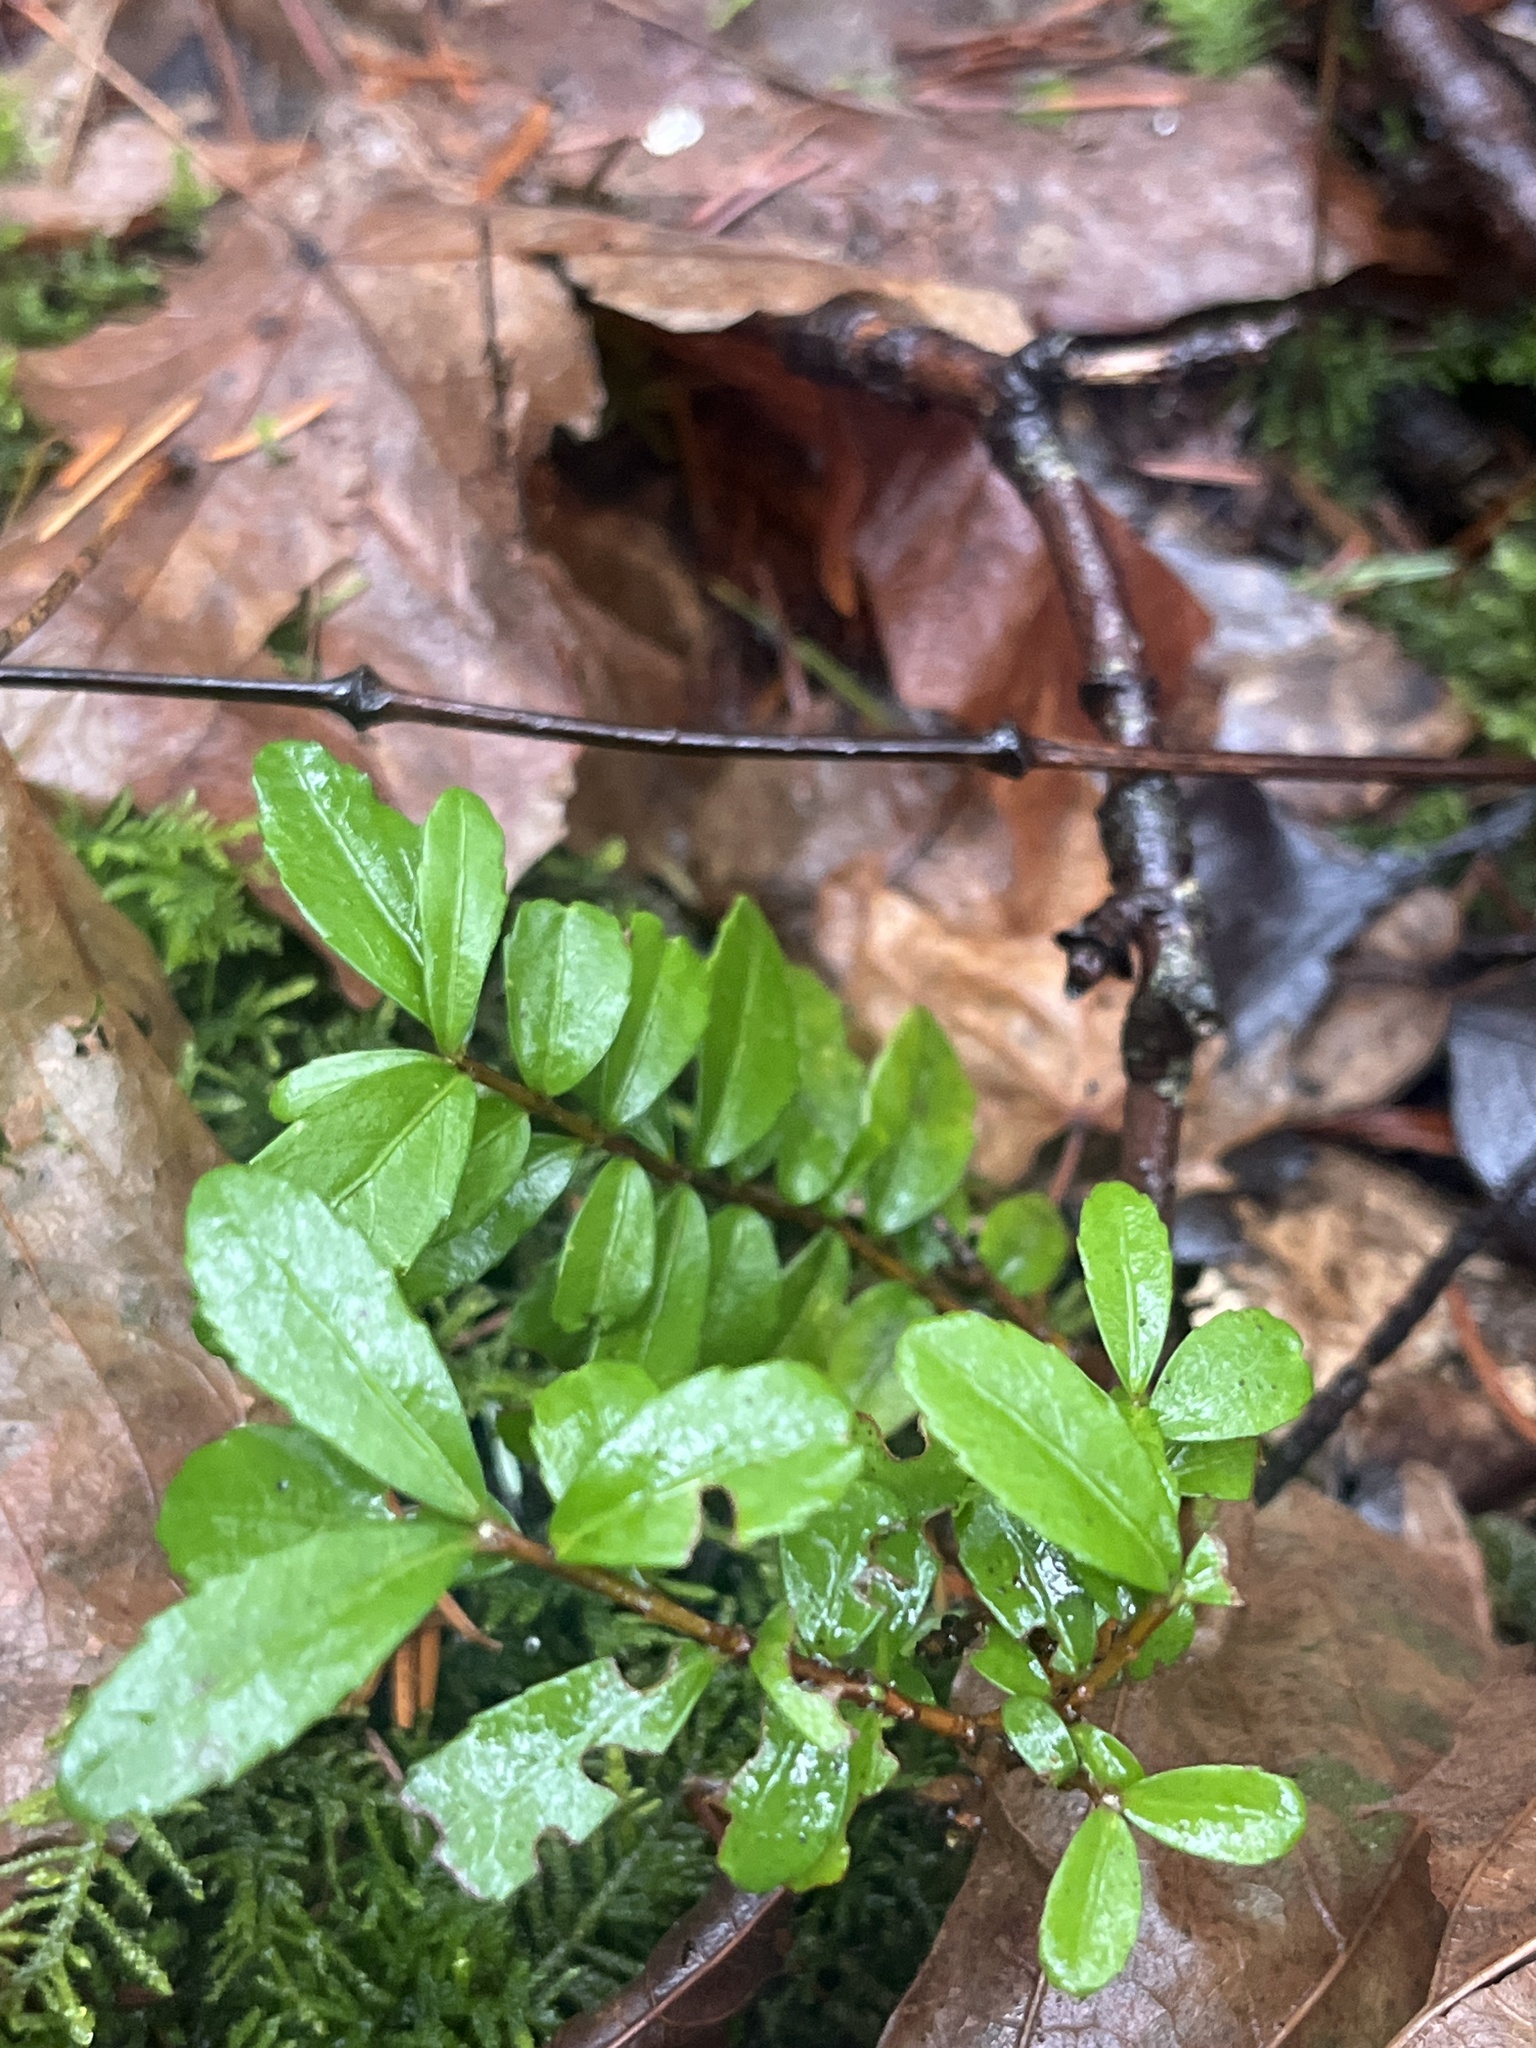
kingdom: Plantae
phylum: Tracheophyta
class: Magnoliopsida
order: Celastrales
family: Celastraceae
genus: Paxistima
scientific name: Paxistima myrsinites
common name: Mountain-lover
